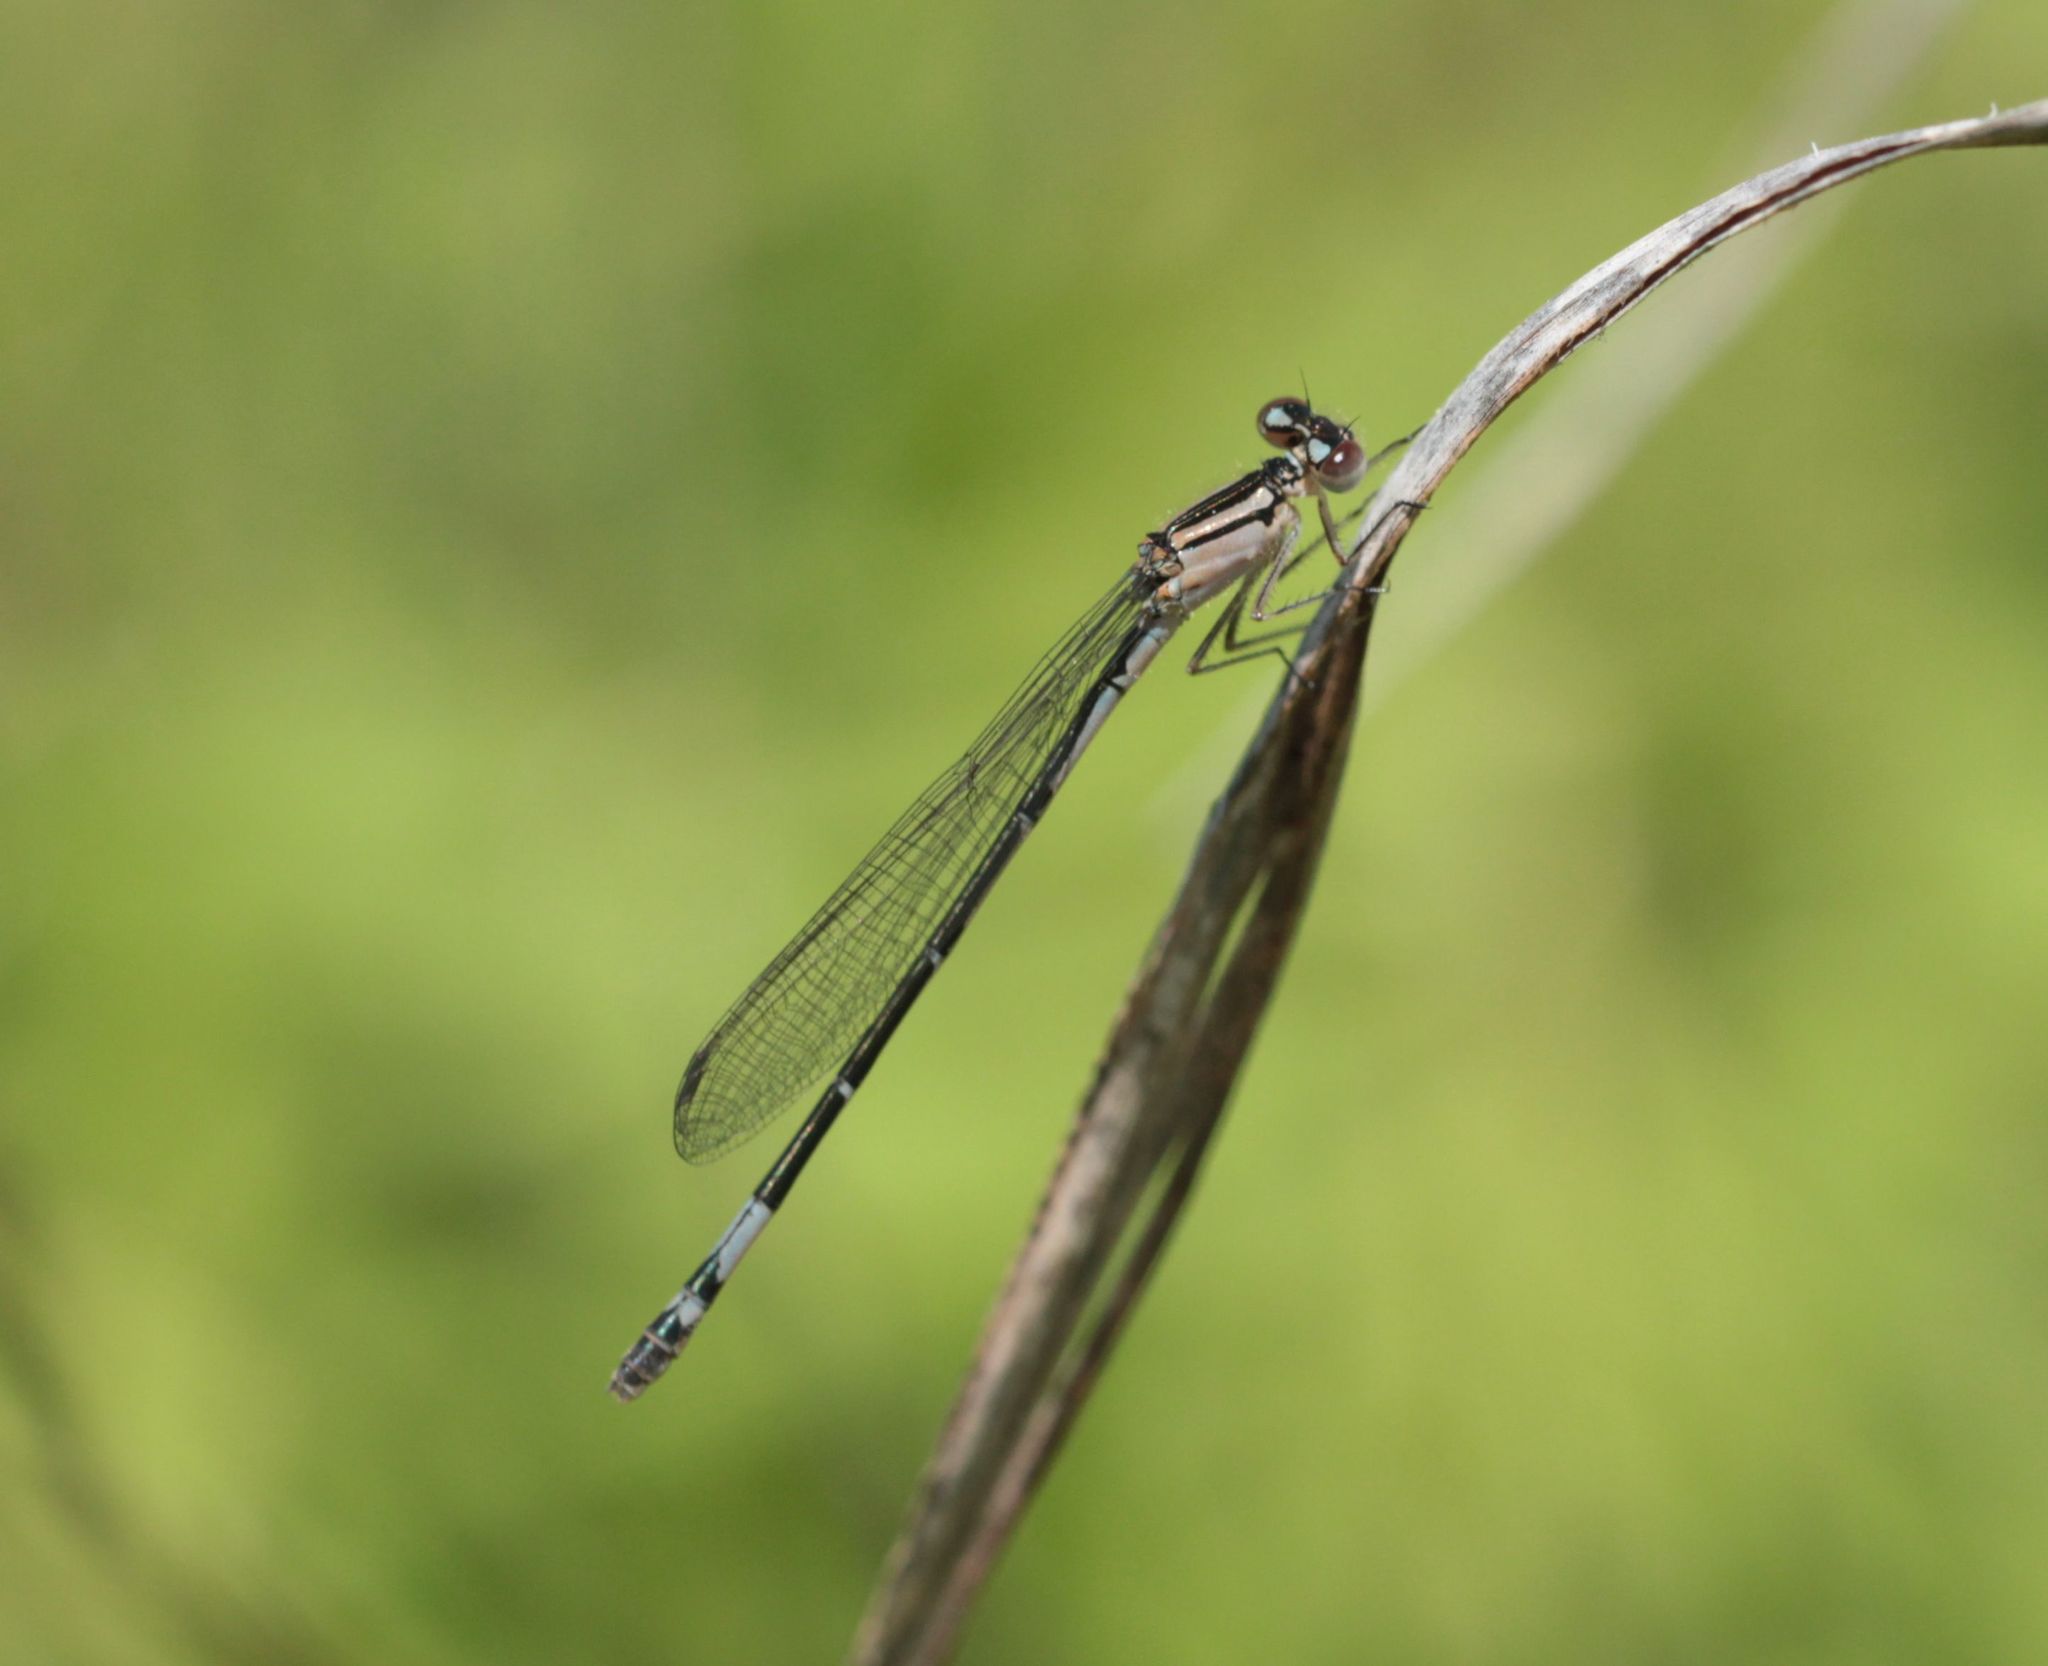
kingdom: Animalia
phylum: Arthropoda
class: Insecta
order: Odonata
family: Coenagrionidae
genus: Enallagma
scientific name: Enallagma aspersum
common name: Azure bluet
